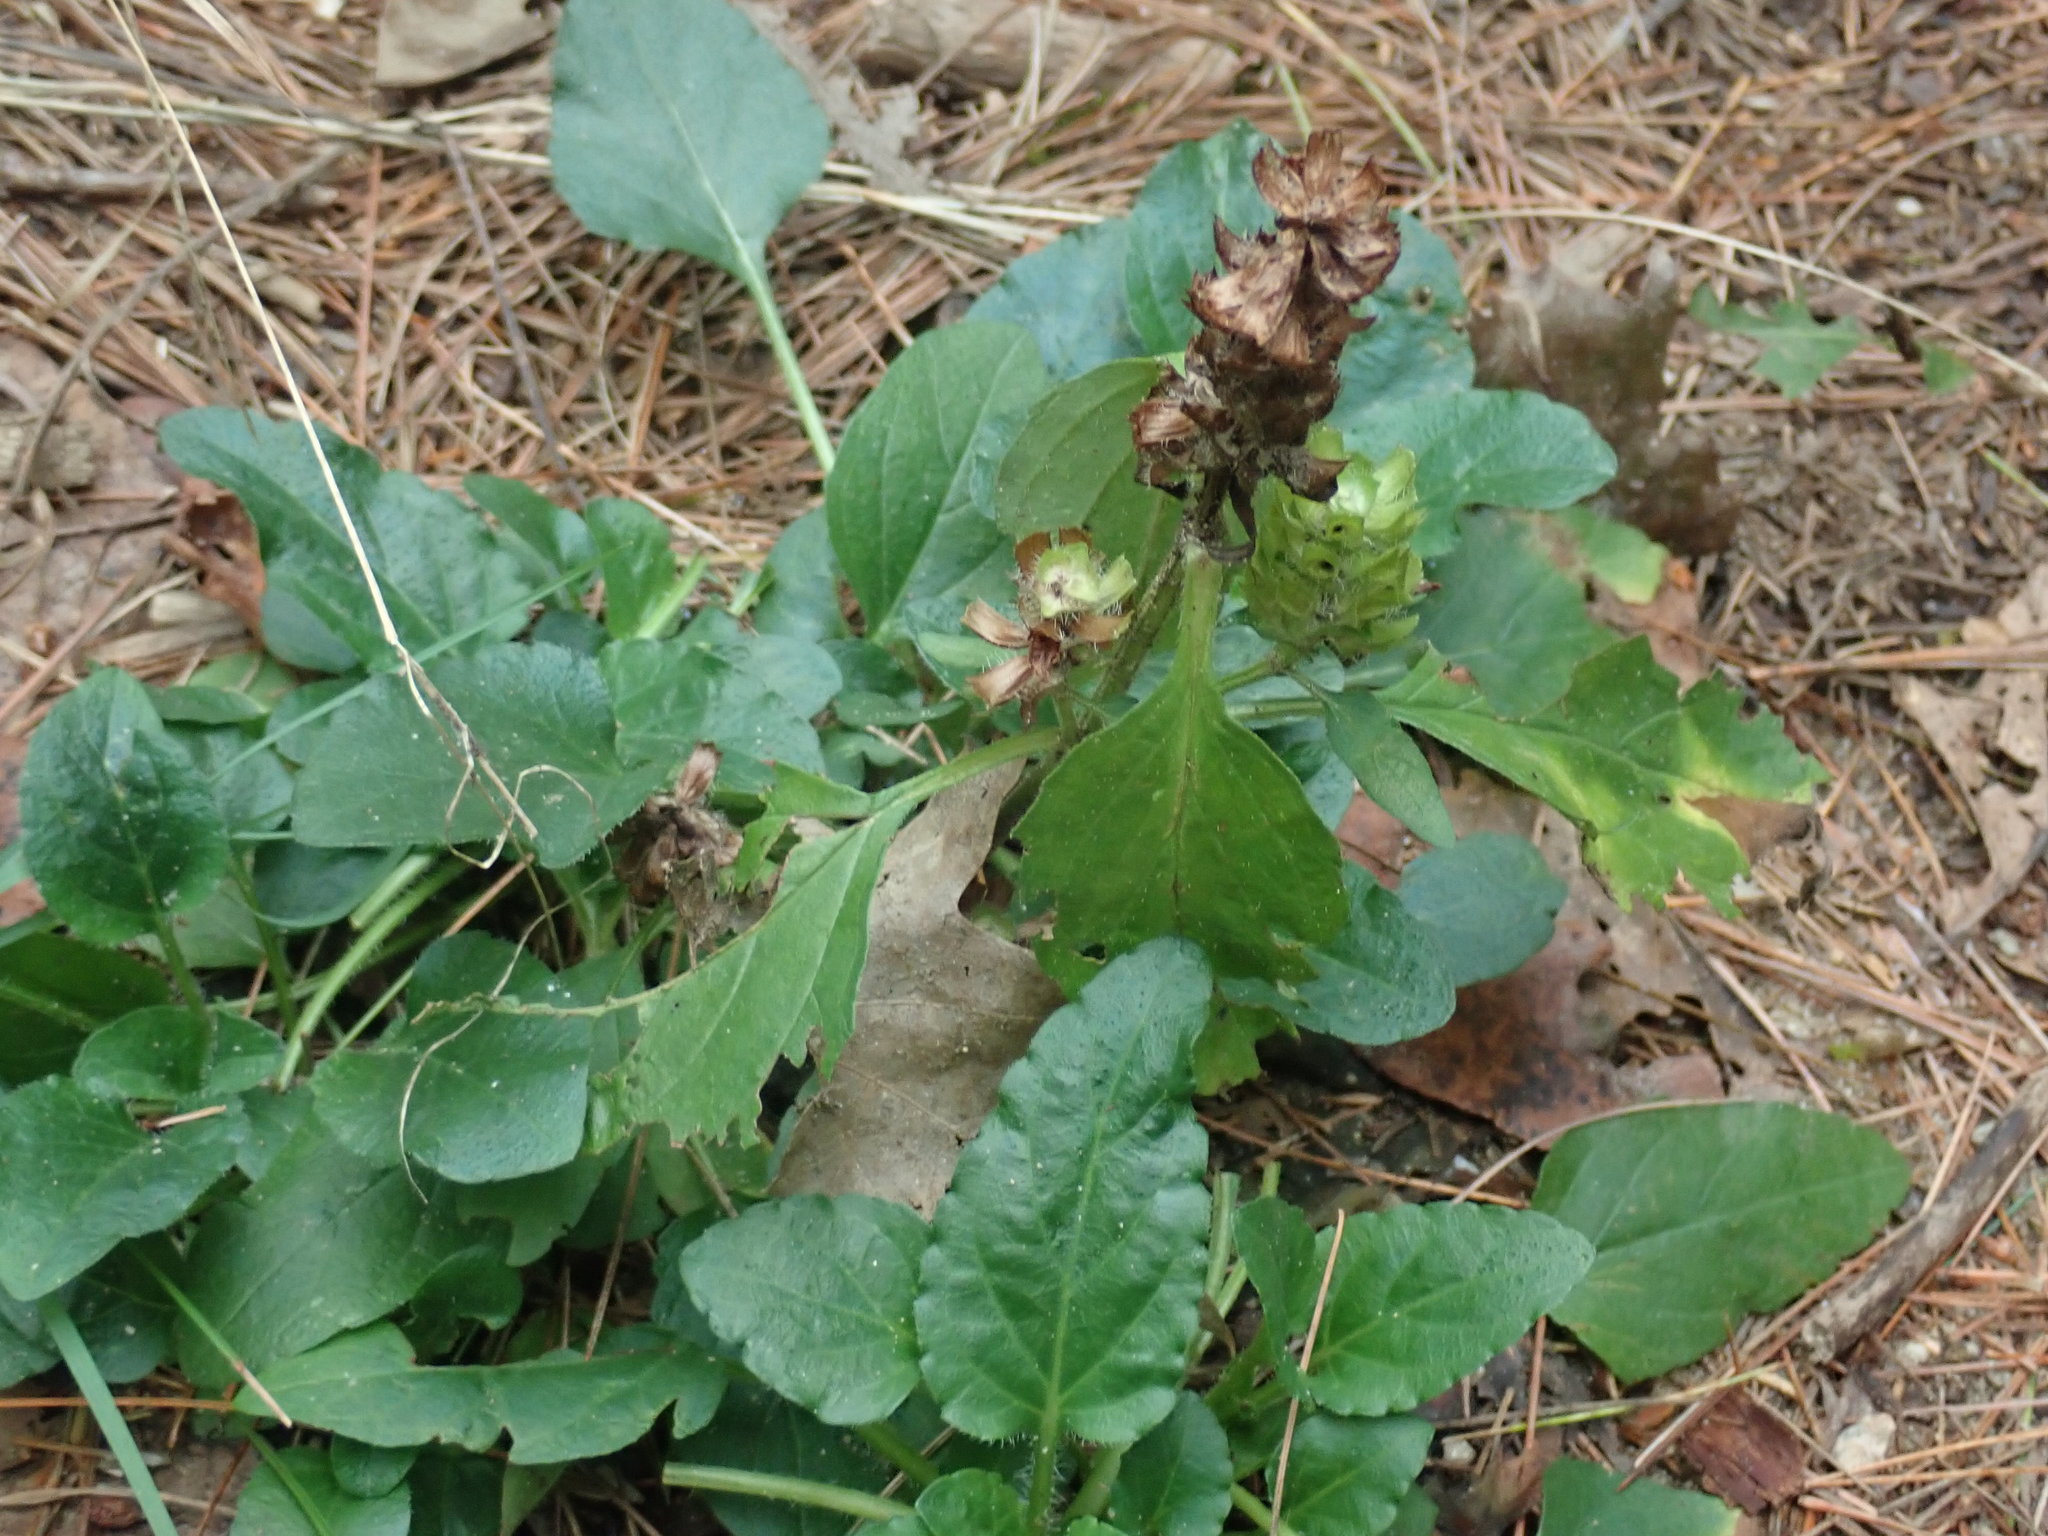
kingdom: Plantae
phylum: Tracheophyta
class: Magnoliopsida
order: Lamiales
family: Lamiaceae
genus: Prunella
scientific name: Prunella vulgaris
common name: Heal-all
